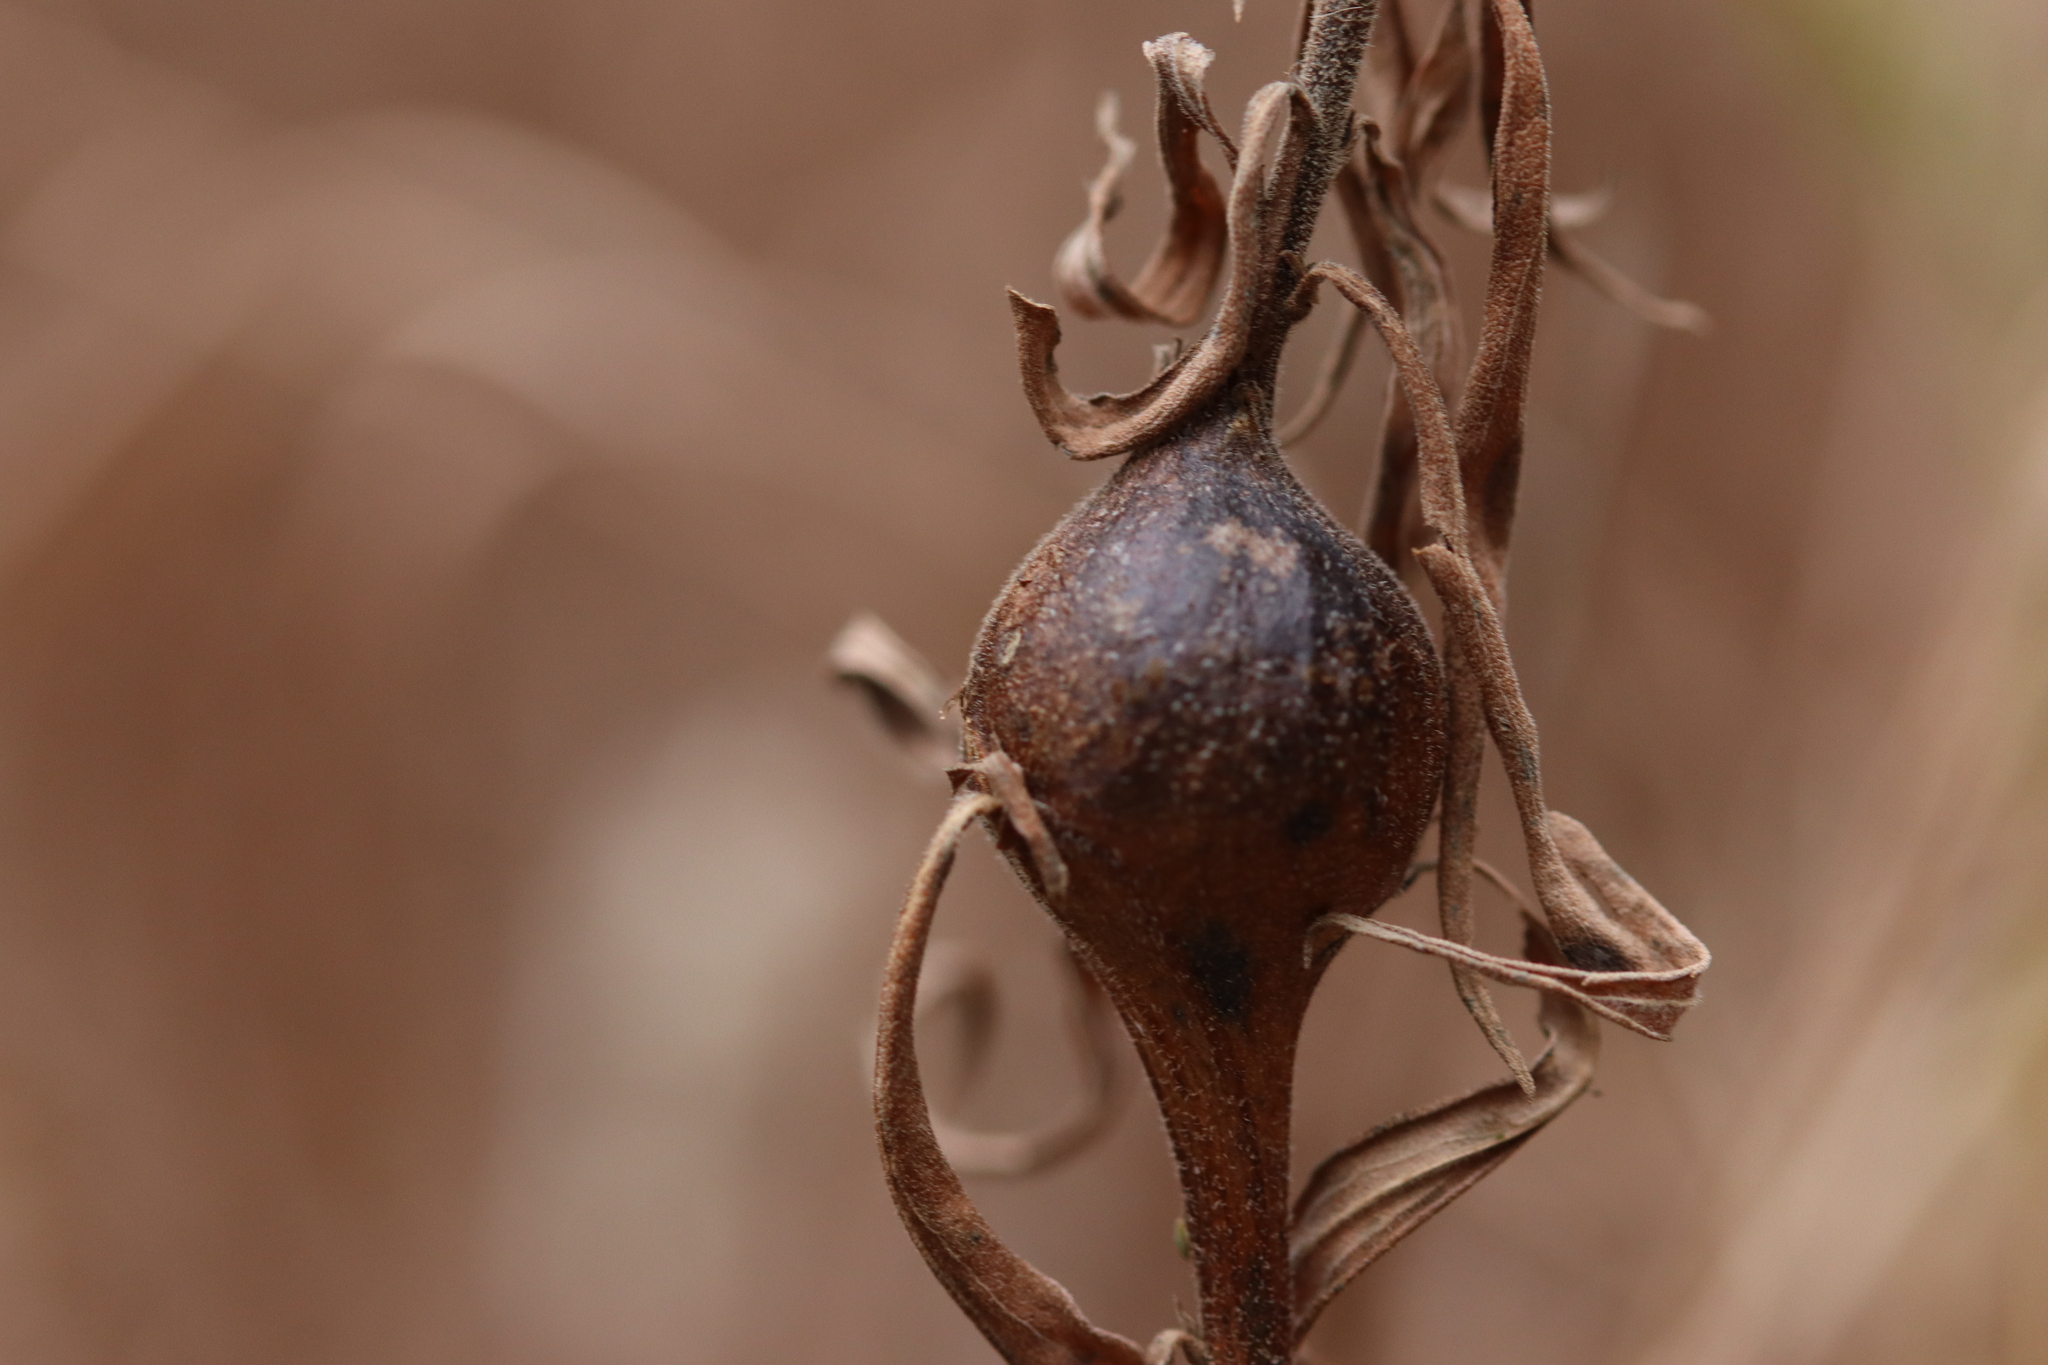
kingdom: Animalia
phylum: Arthropoda
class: Insecta
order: Diptera
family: Tephritidae
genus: Eurosta
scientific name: Eurosta solidaginis
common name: Goldenrod gall fly
